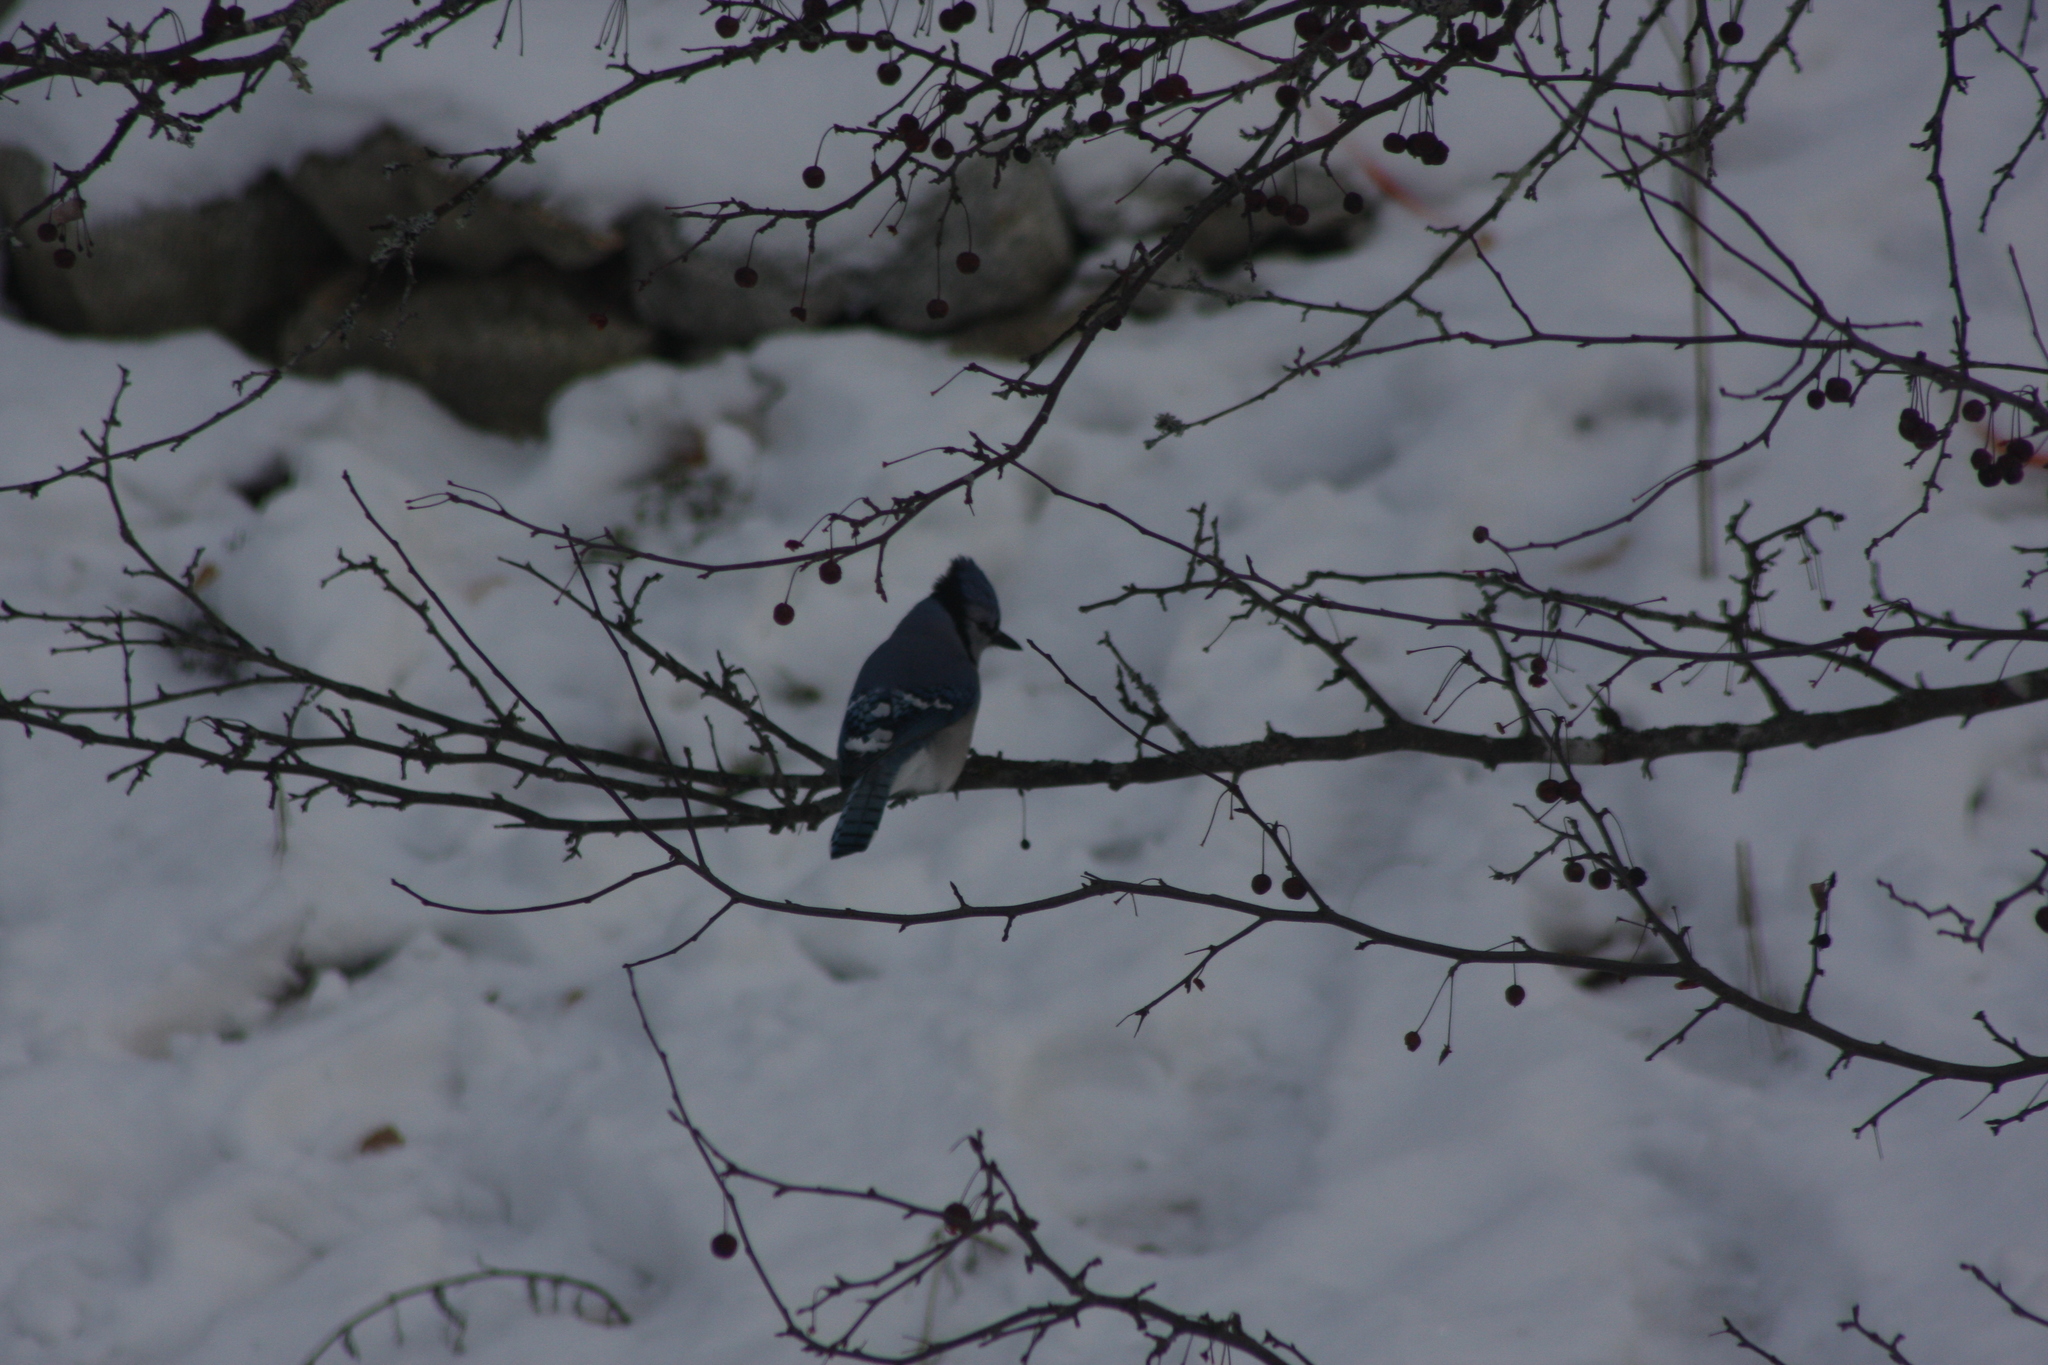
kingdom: Animalia
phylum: Chordata
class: Aves
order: Passeriformes
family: Corvidae
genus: Cyanocitta
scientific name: Cyanocitta cristata
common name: Blue jay
